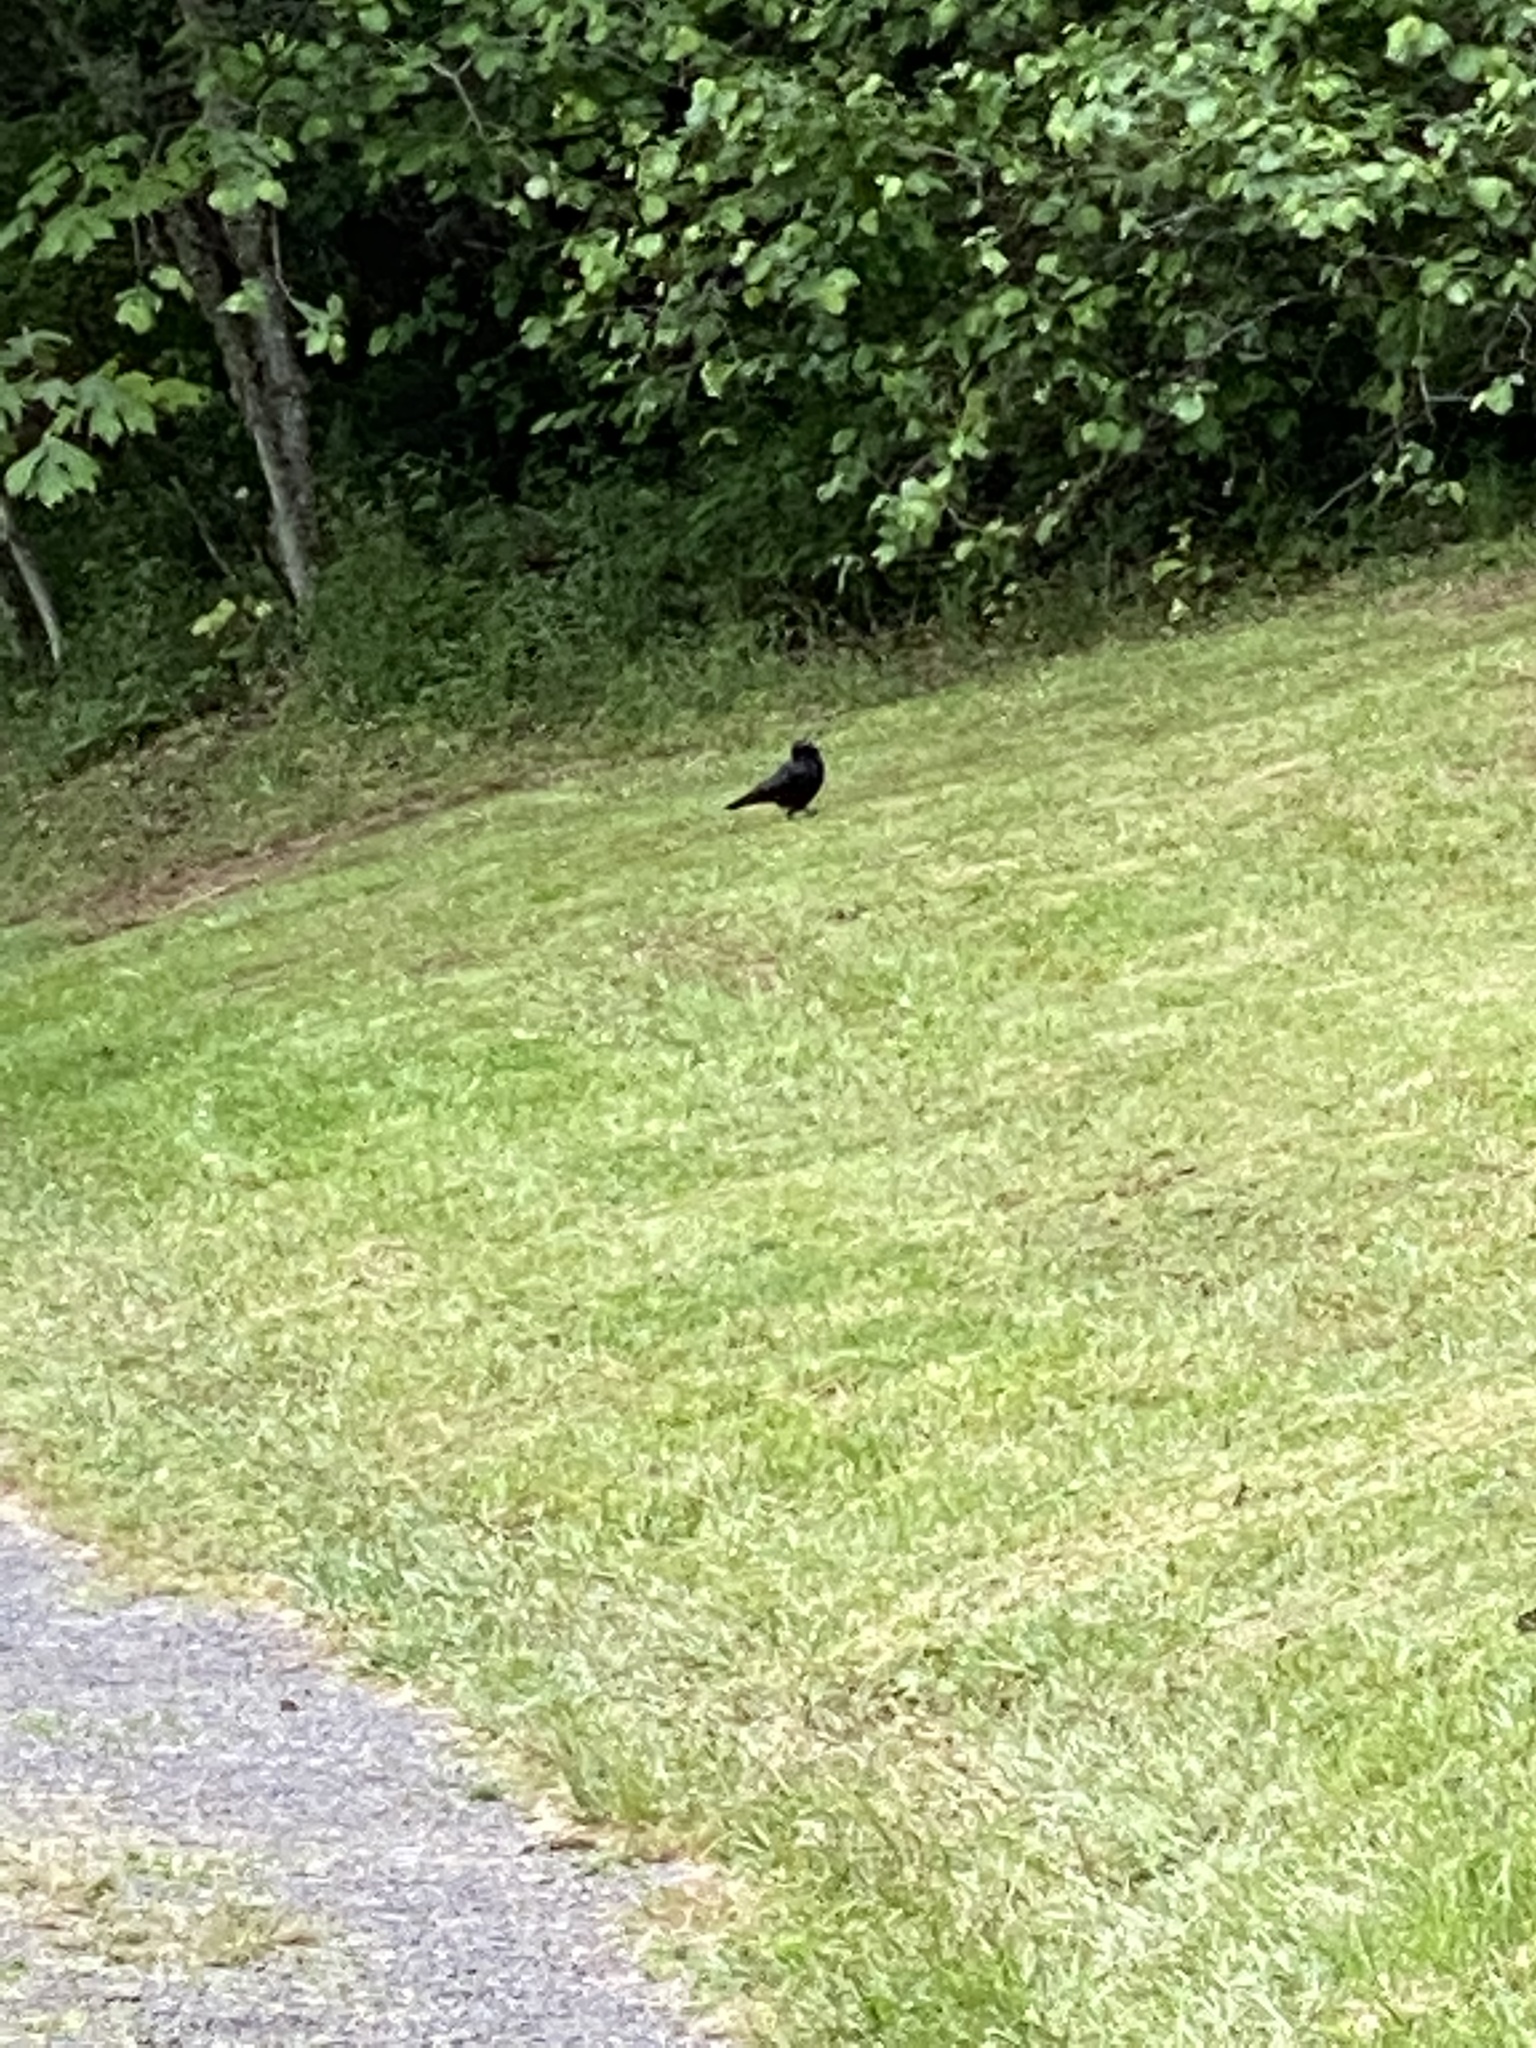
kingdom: Animalia
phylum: Chordata
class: Aves
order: Passeriformes
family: Corvidae
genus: Corvus
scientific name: Corvus brachyrhynchos
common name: American crow
